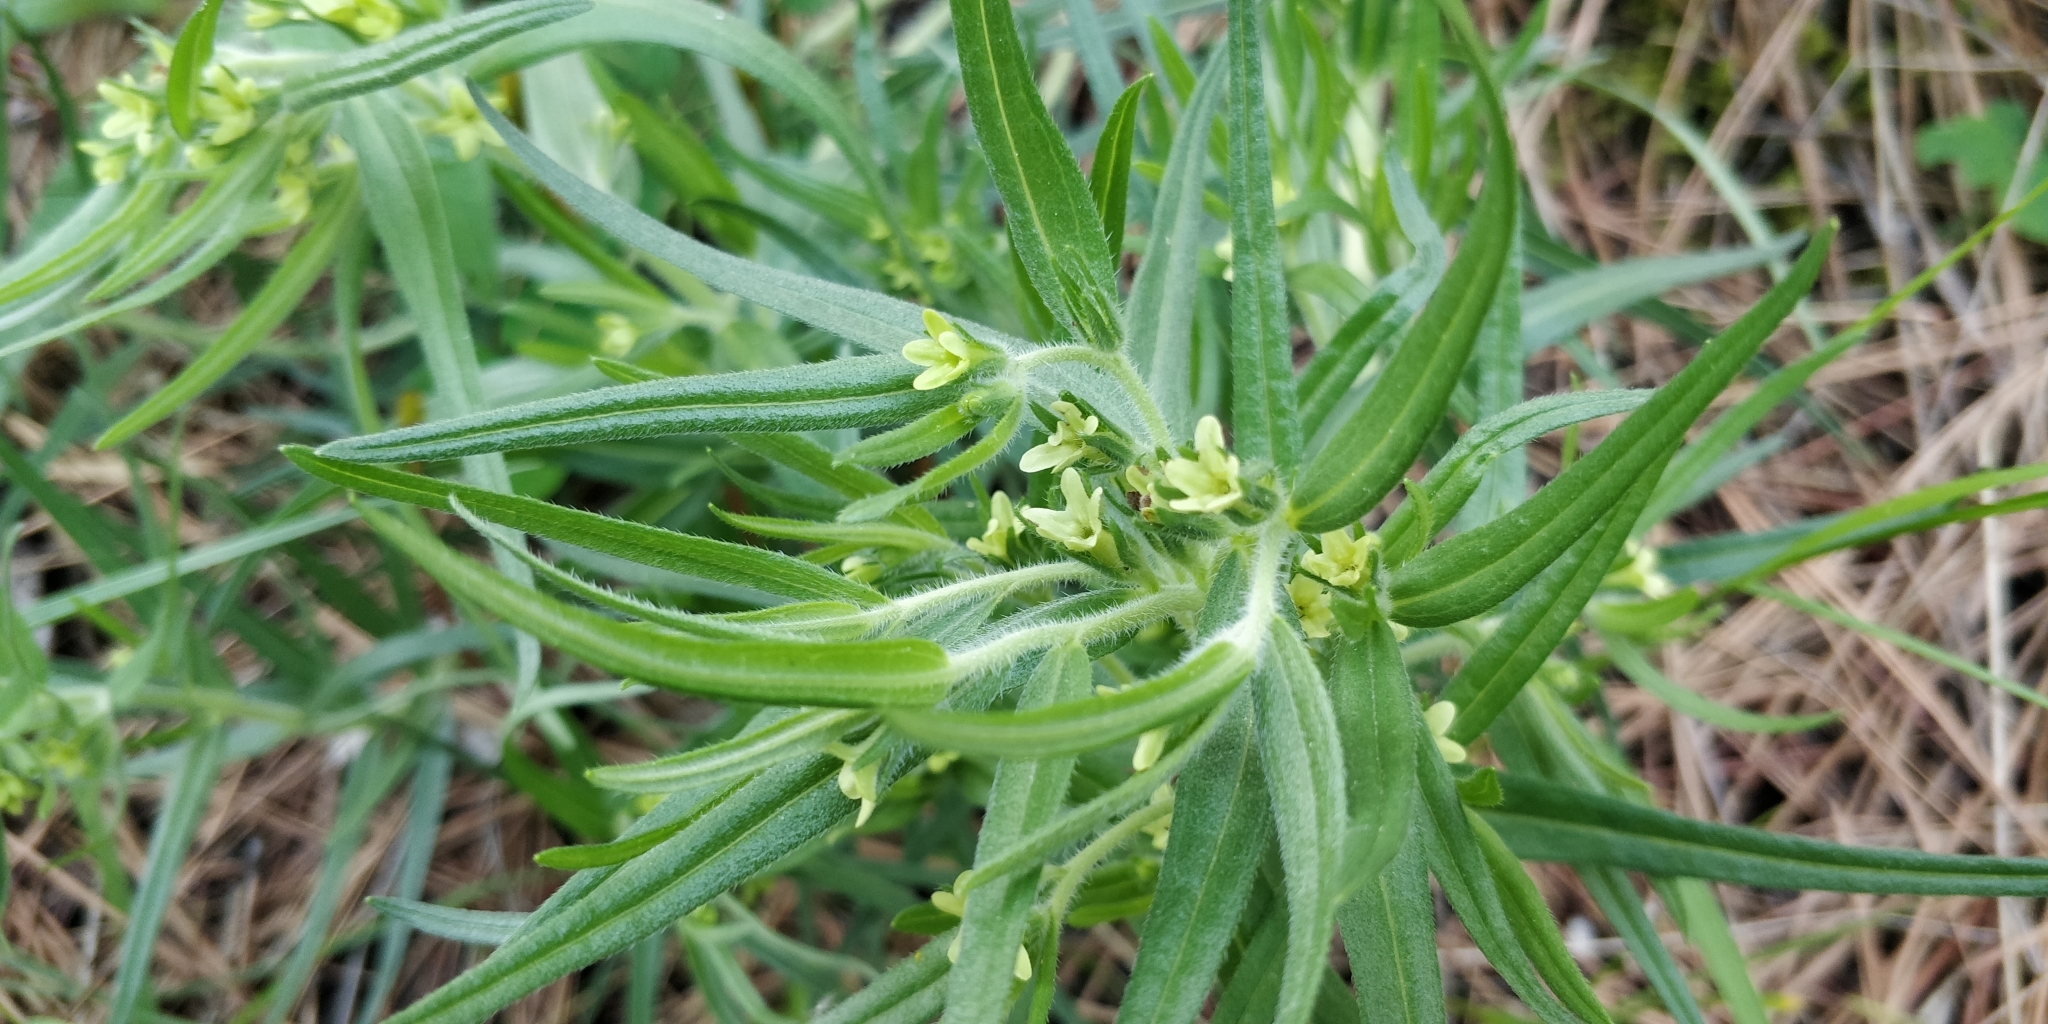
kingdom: Plantae
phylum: Tracheophyta
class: Magnoliopsida
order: Boraginales
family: Boraginaceae
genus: Lithospermum
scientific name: Lithospermum ruderale
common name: Western gromwell
